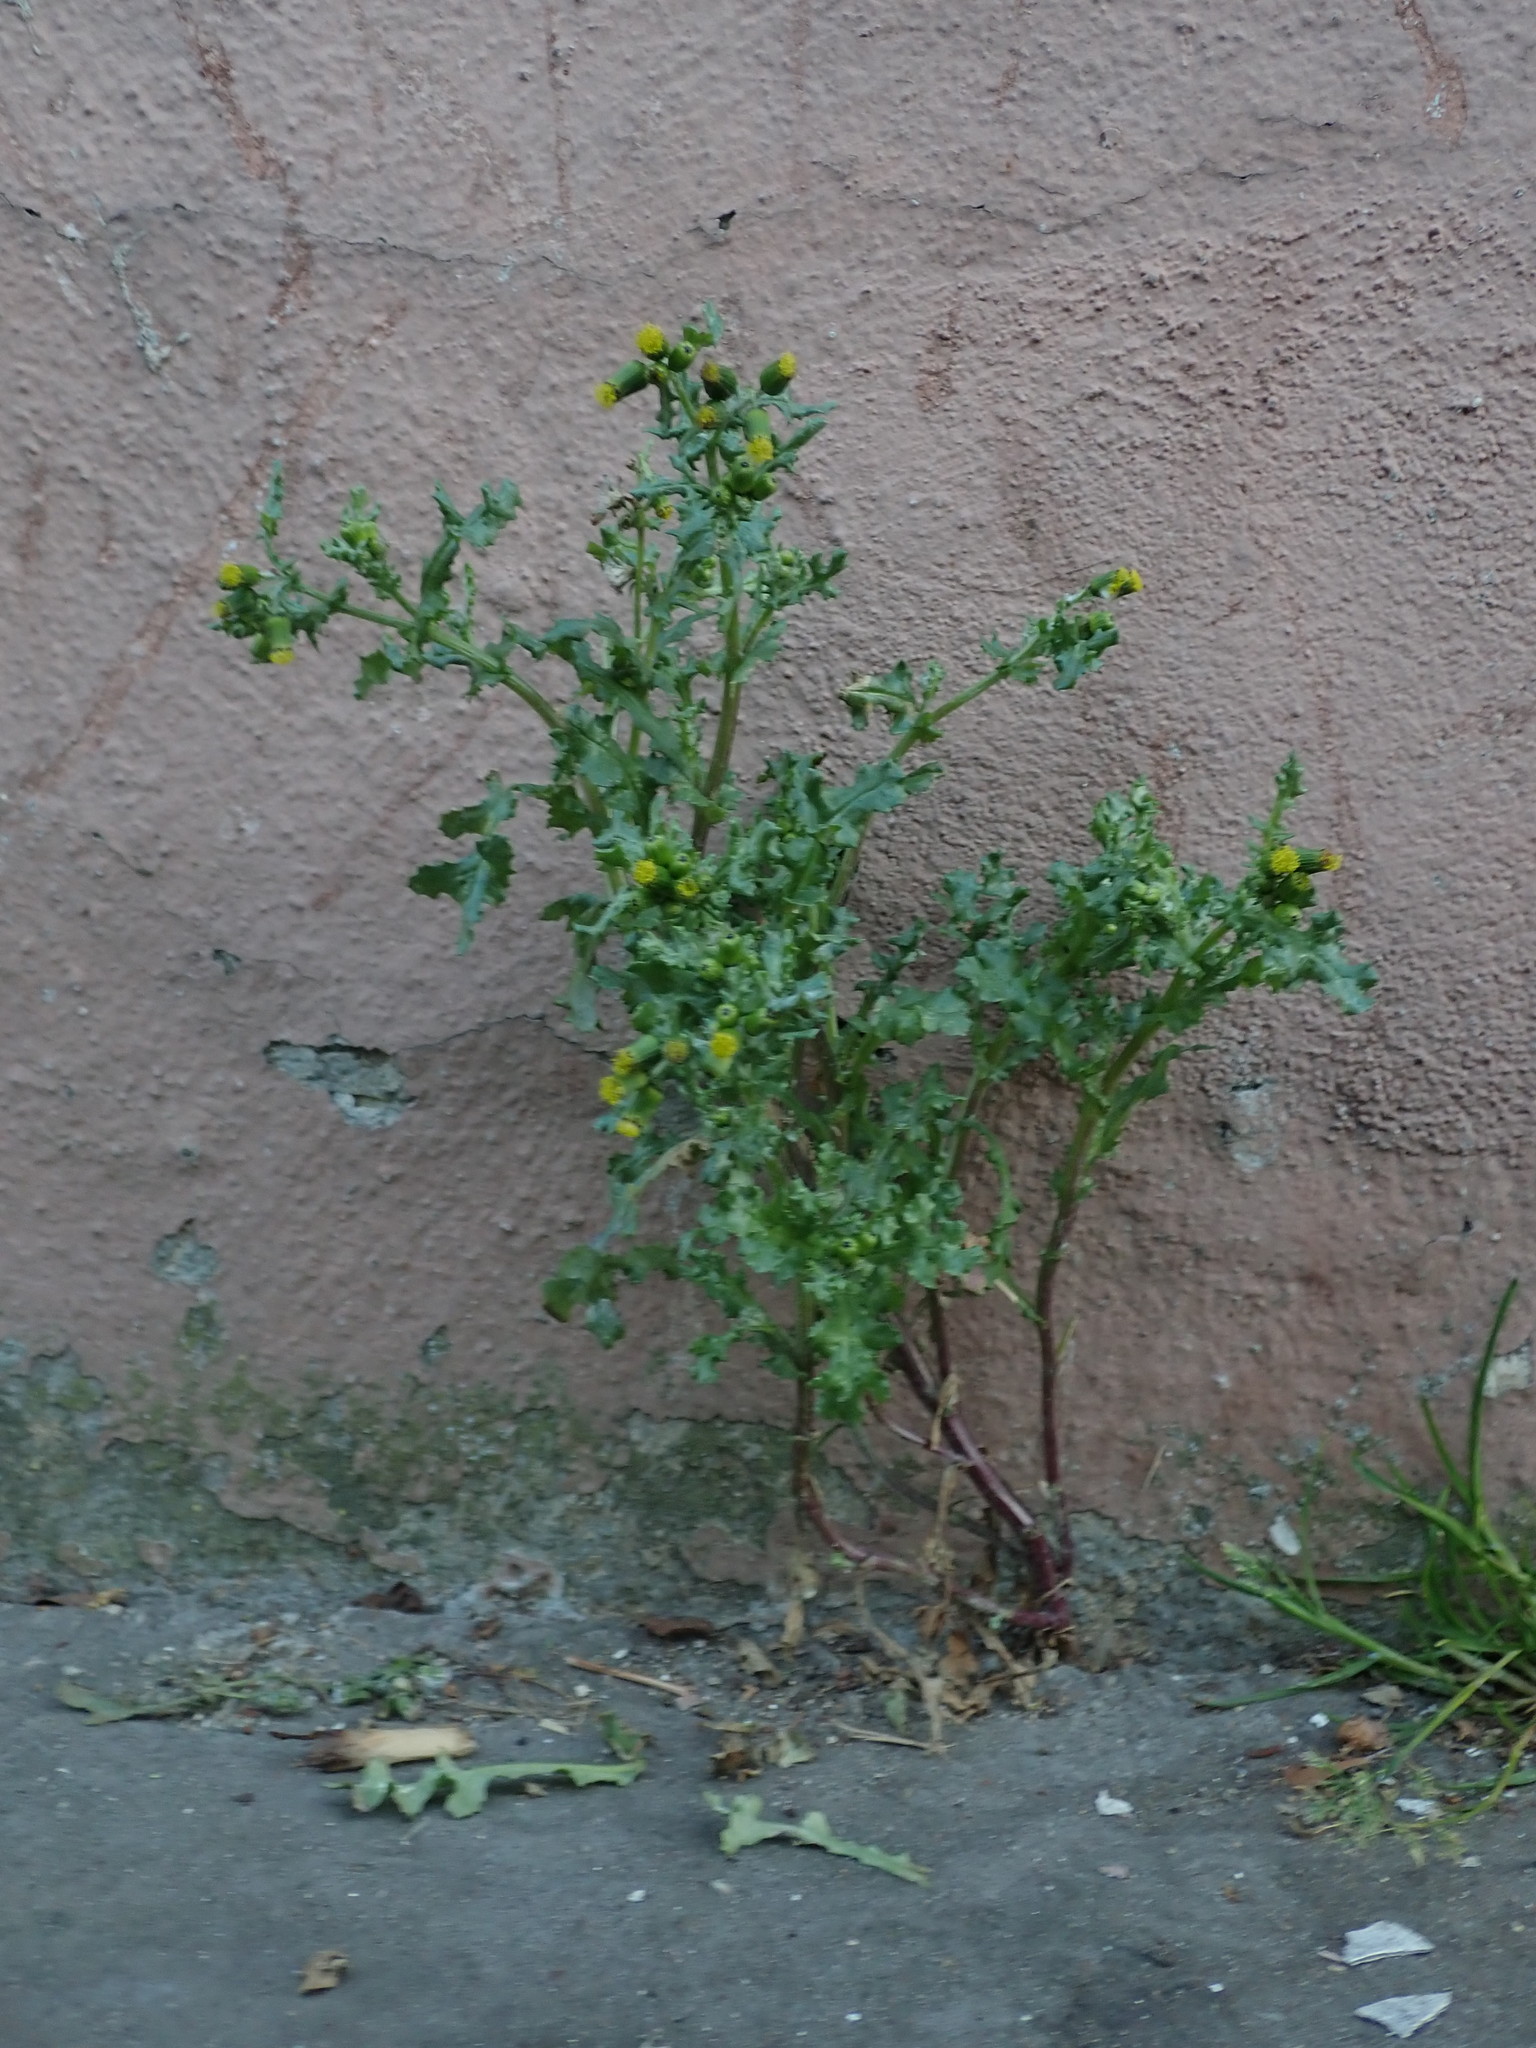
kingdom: Plantae
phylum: Tracheophyta
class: Magnoliopsida
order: Asterales
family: Asteraceae
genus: Senecio
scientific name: Senecio vulgaris
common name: Old-man-in-the-spring
